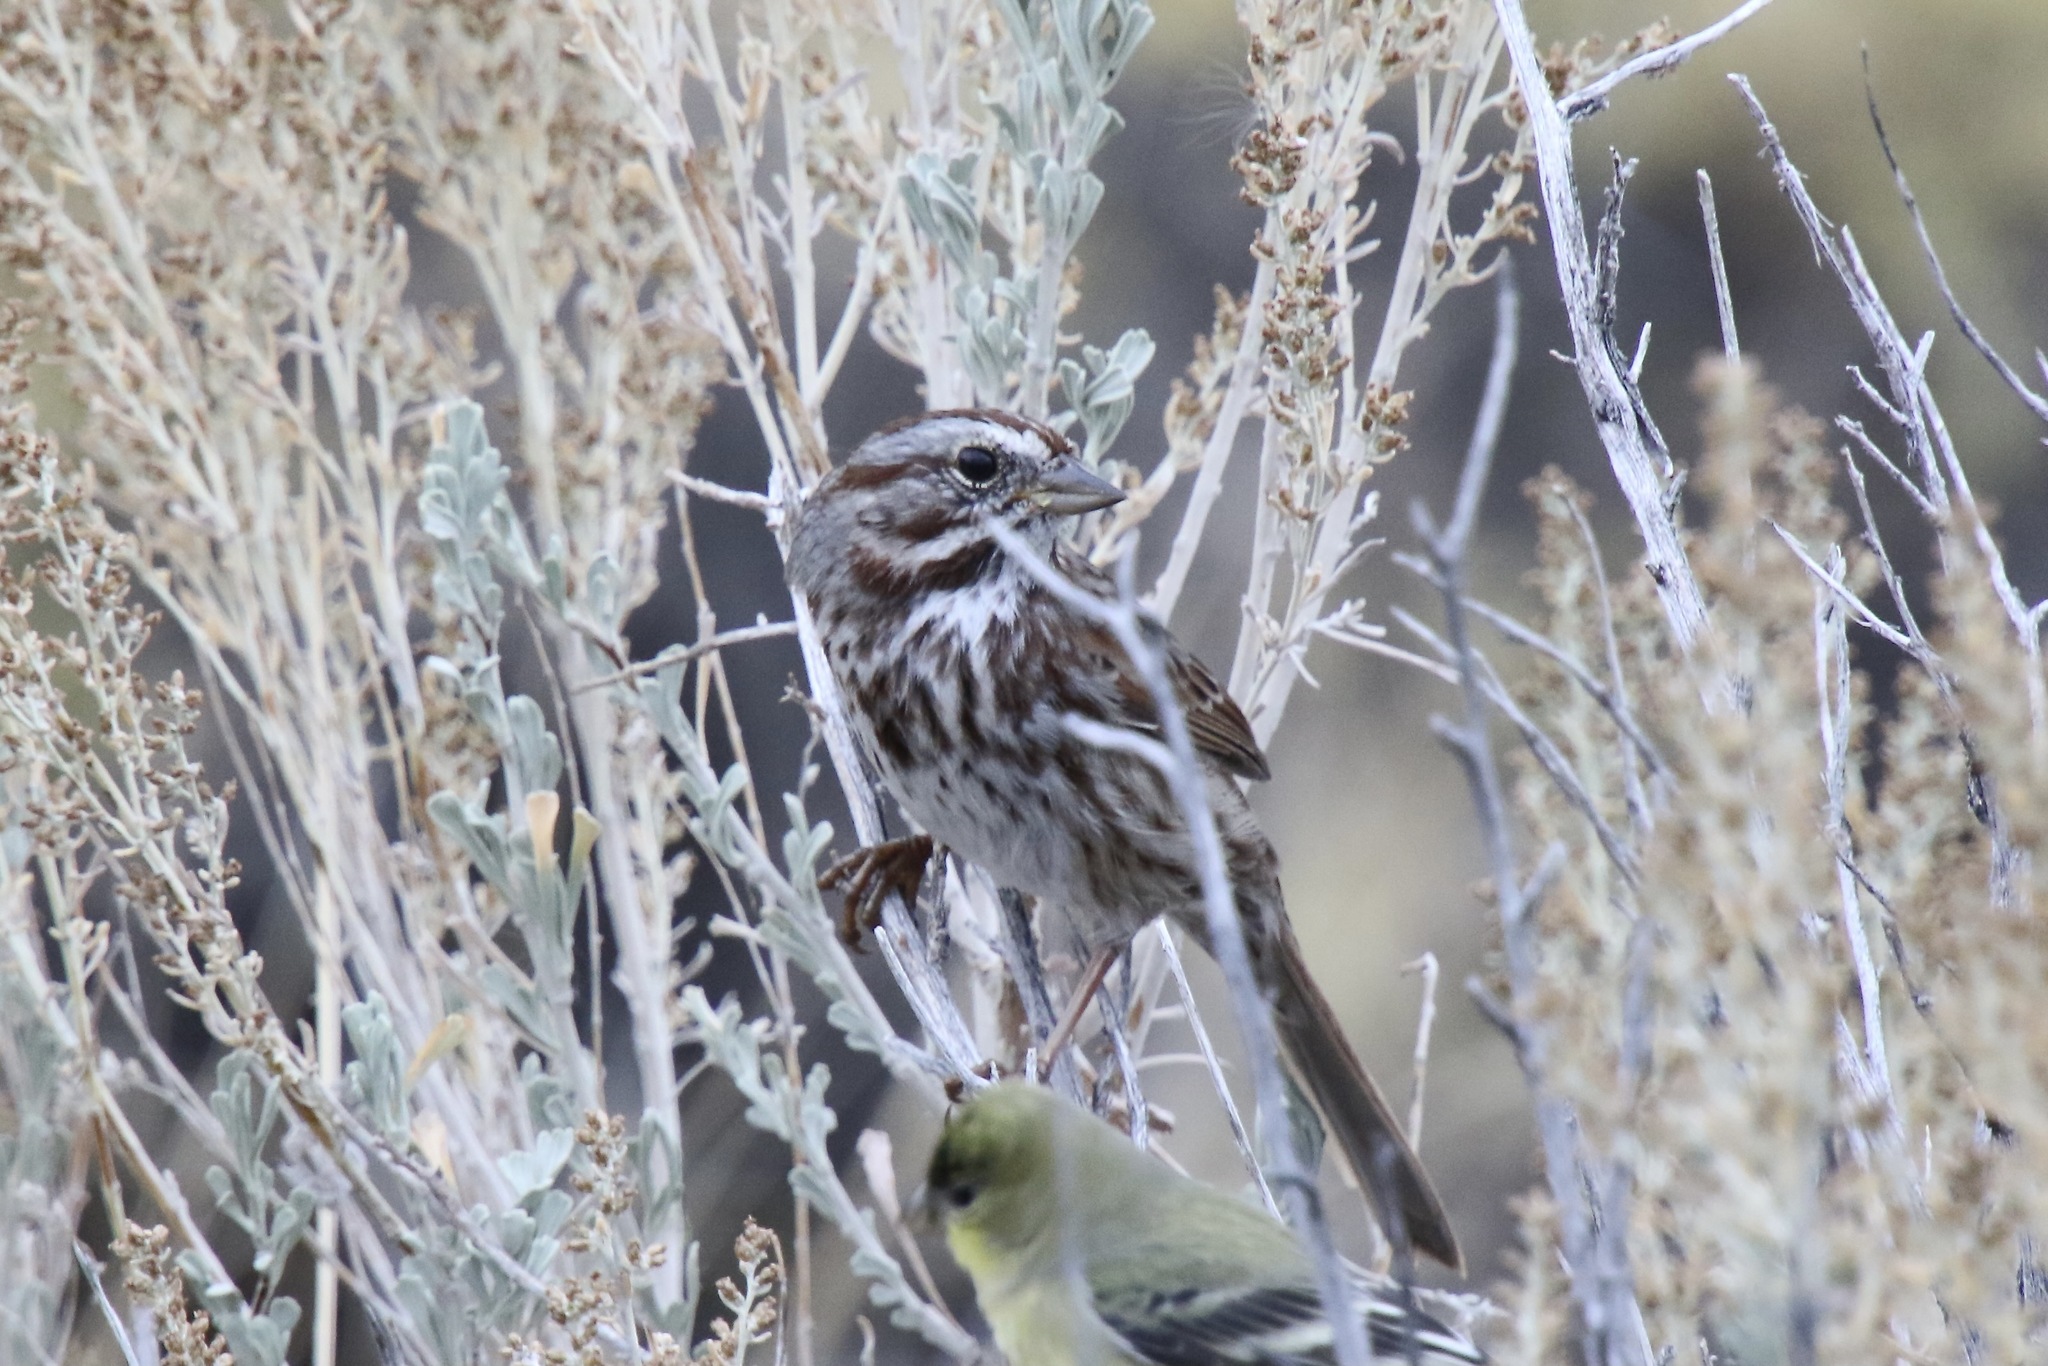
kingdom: Animalia
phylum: Chordata
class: Aves
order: Passeriformes
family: Passerellidae
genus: Melospiza
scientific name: Melospiza melodia
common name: Song sparrow
